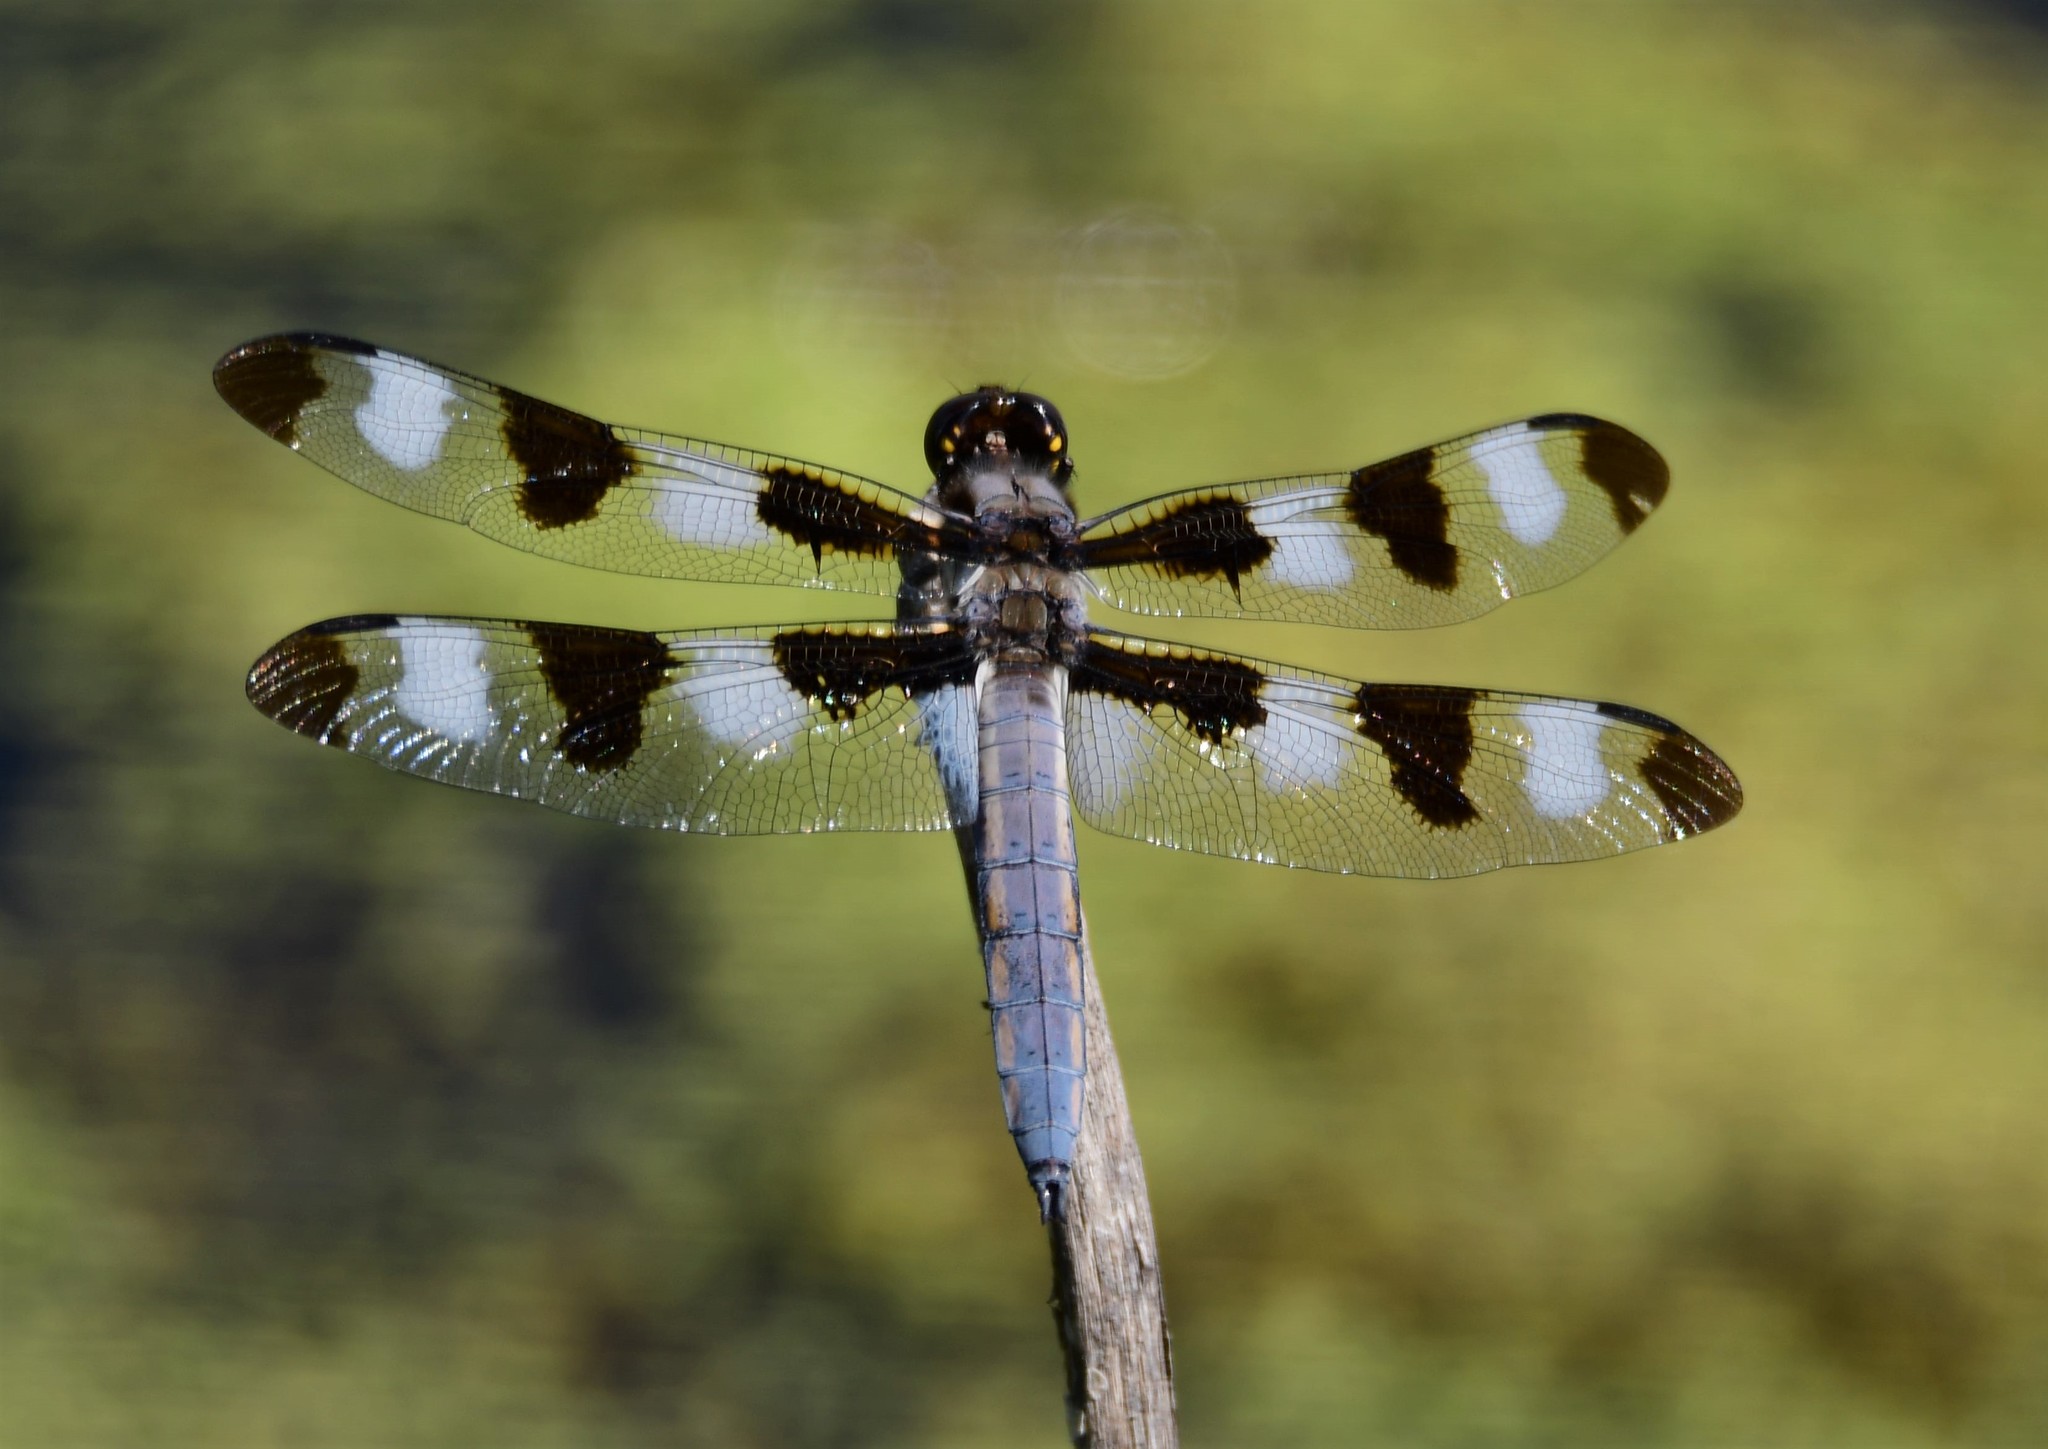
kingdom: Animalia
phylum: Arthropoda
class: Insecta
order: Odonata
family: Libellulidae
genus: Libellula
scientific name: Libellula pulchella
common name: Twelve-spotted skimmer
